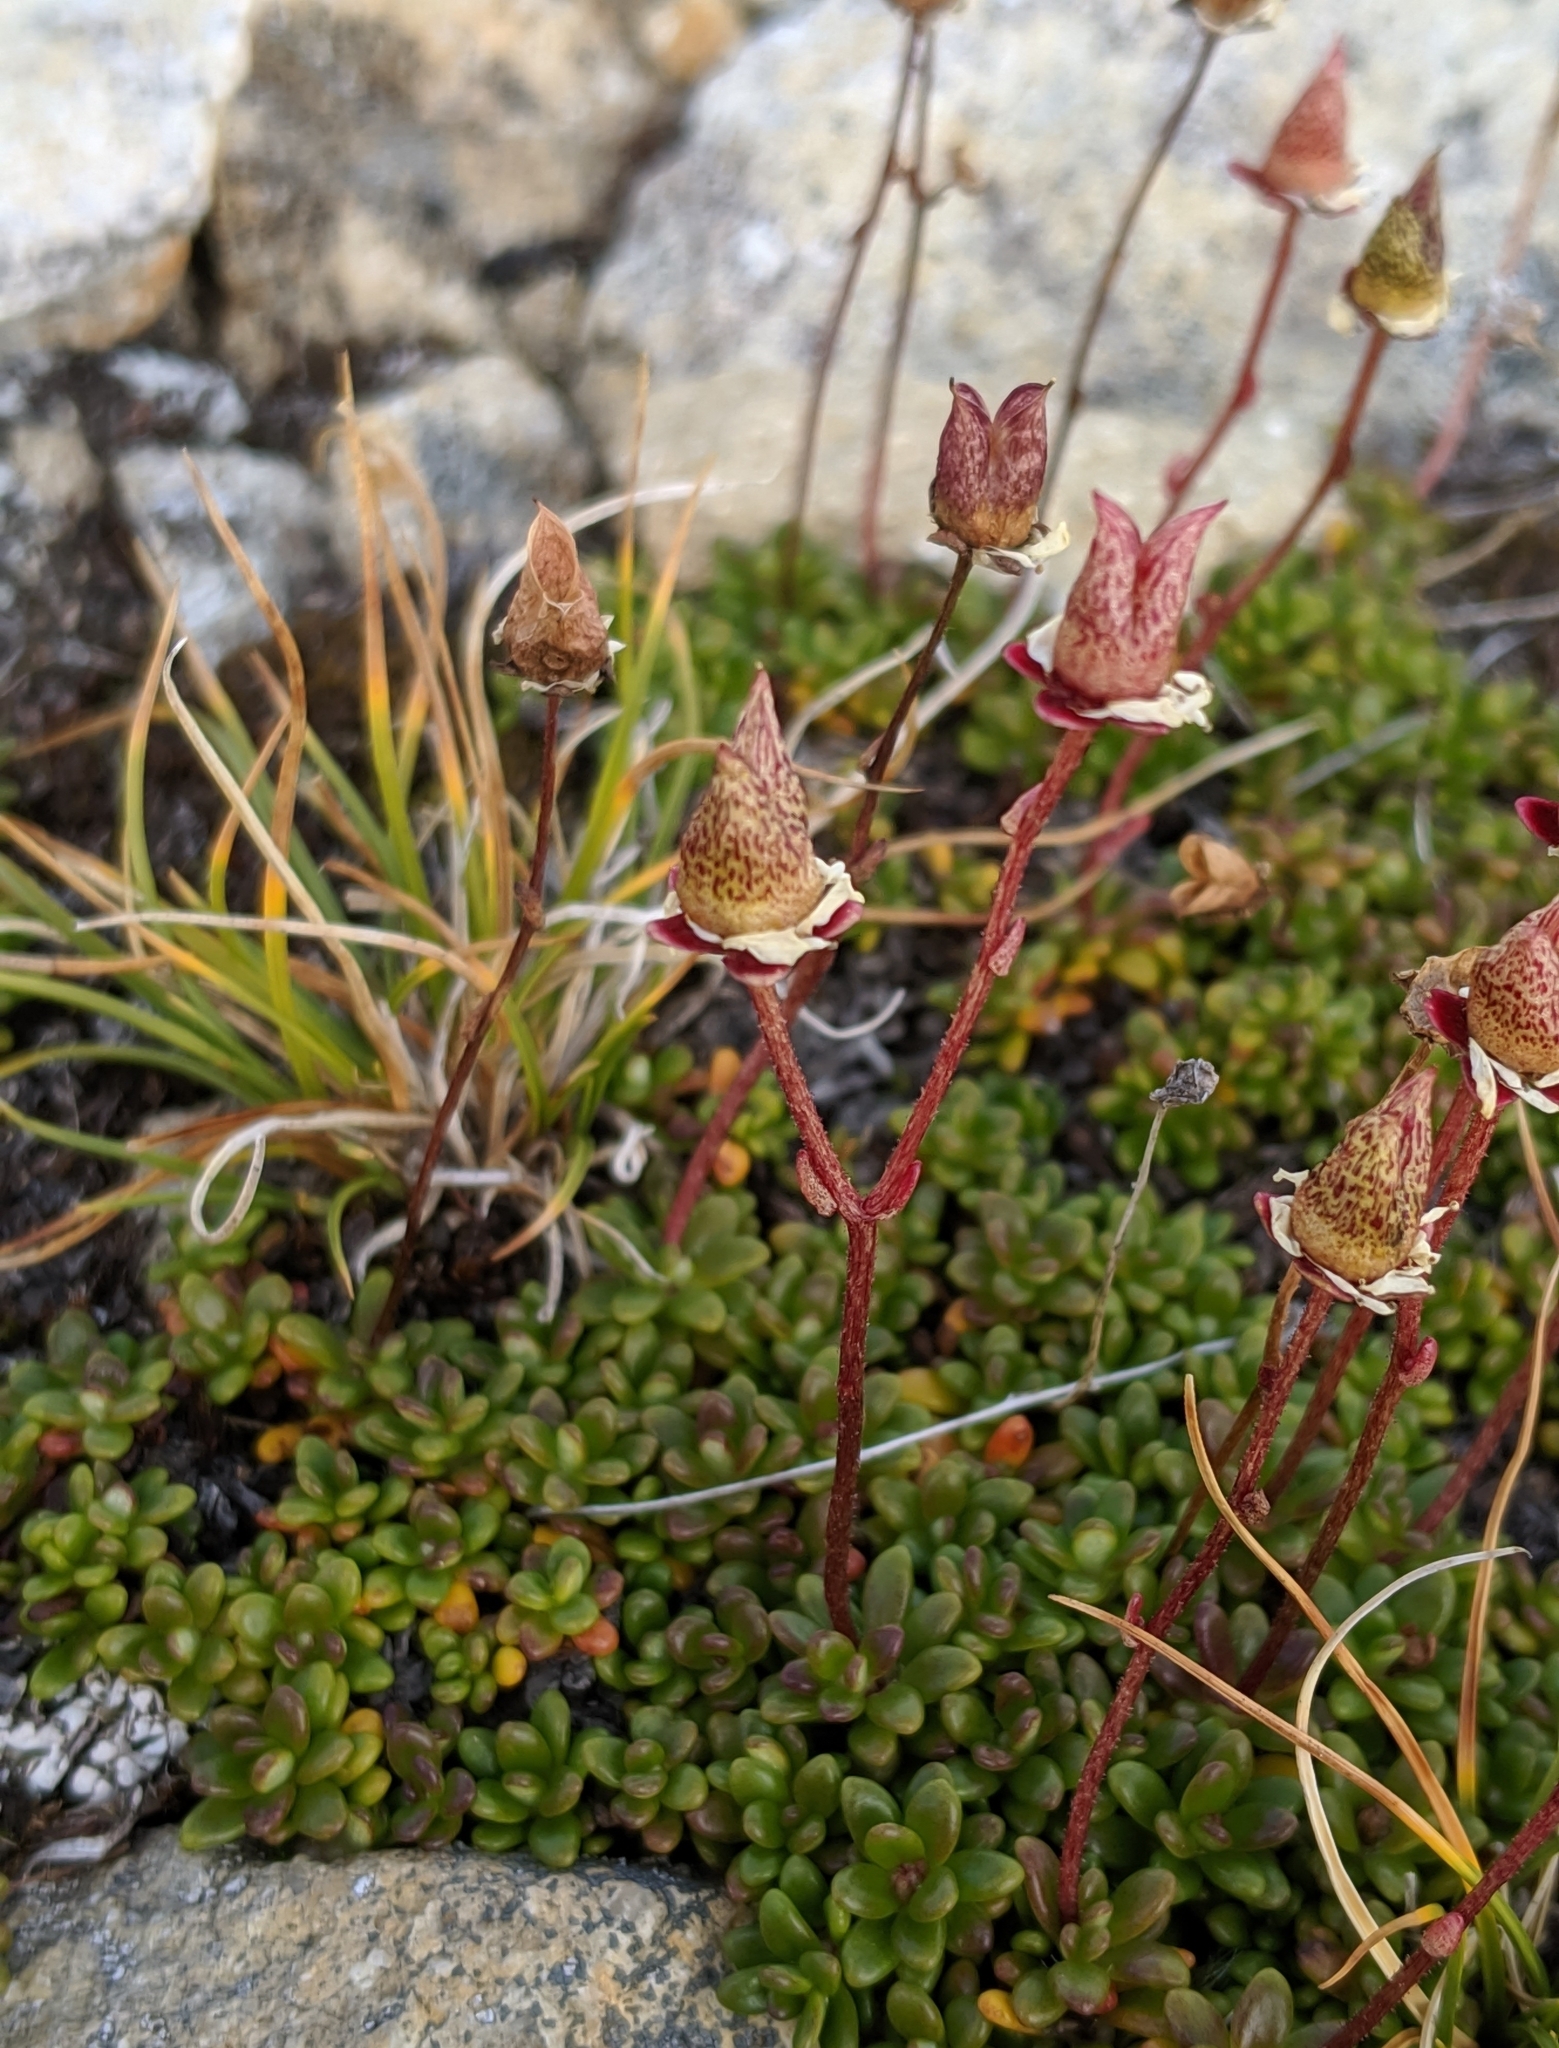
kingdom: Plantae
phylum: Tracheophyta
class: Magnoliopsida
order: Saxifragales
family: Saxifragaceae
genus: Micranthes
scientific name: Micranthes tolmiei
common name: Tolmie's saxifrage
